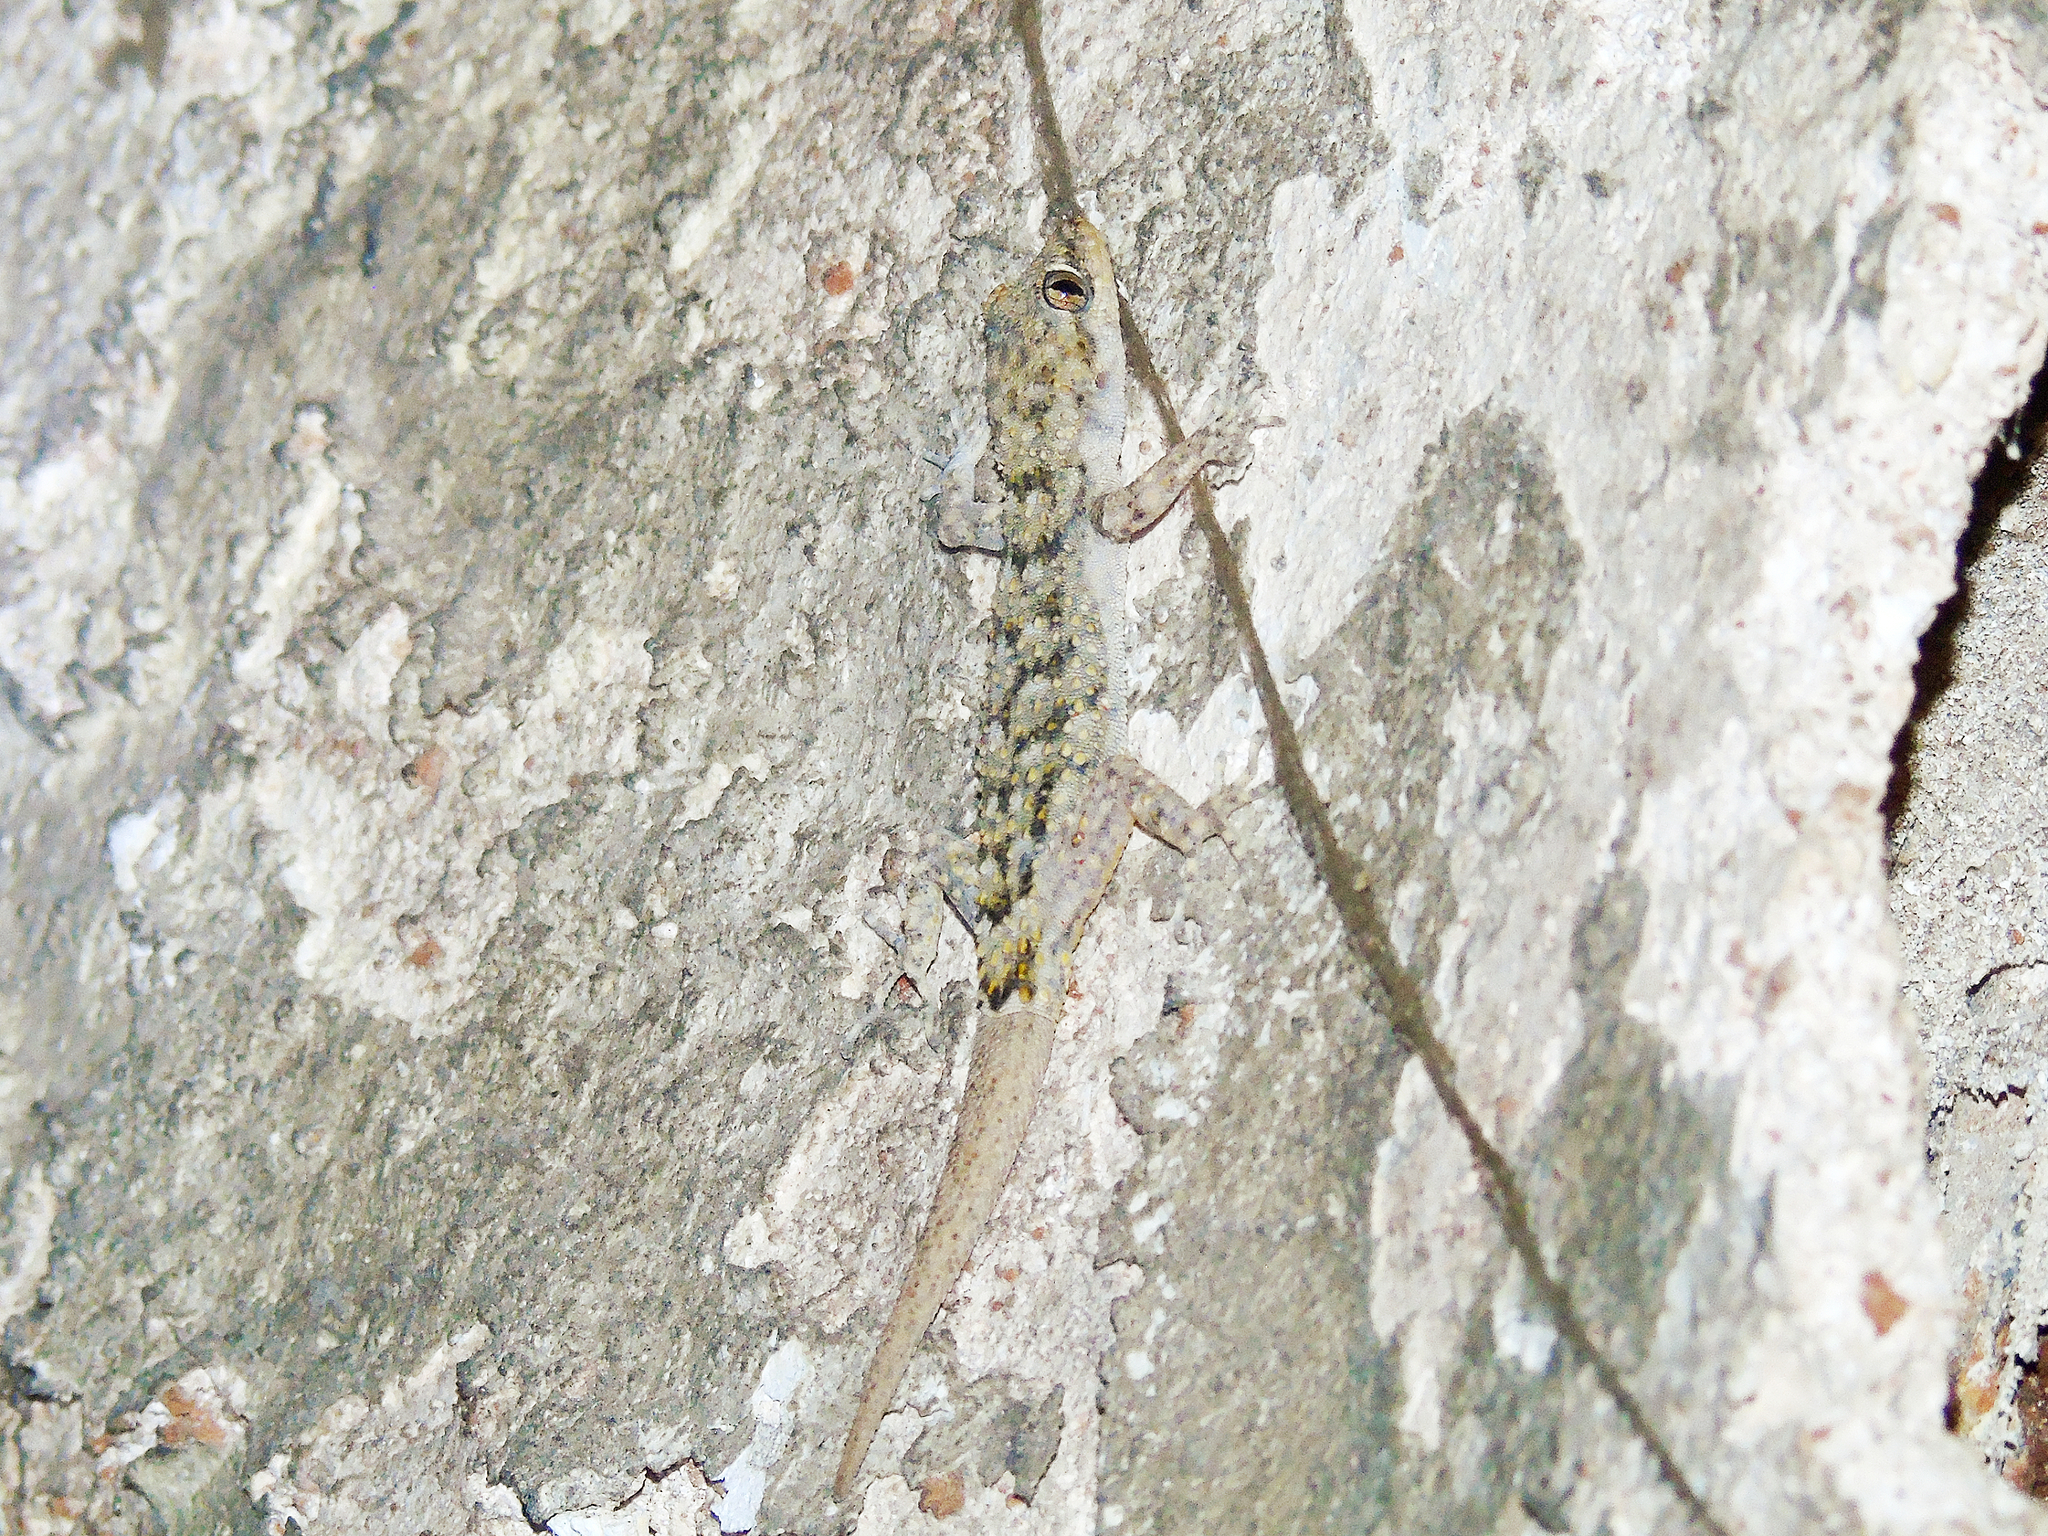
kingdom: Animalia
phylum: Chordata
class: Squamata
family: Gekkonidae
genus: Mediodactylus
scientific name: Mediodactylus kotschyi
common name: Kotschy's gecko
